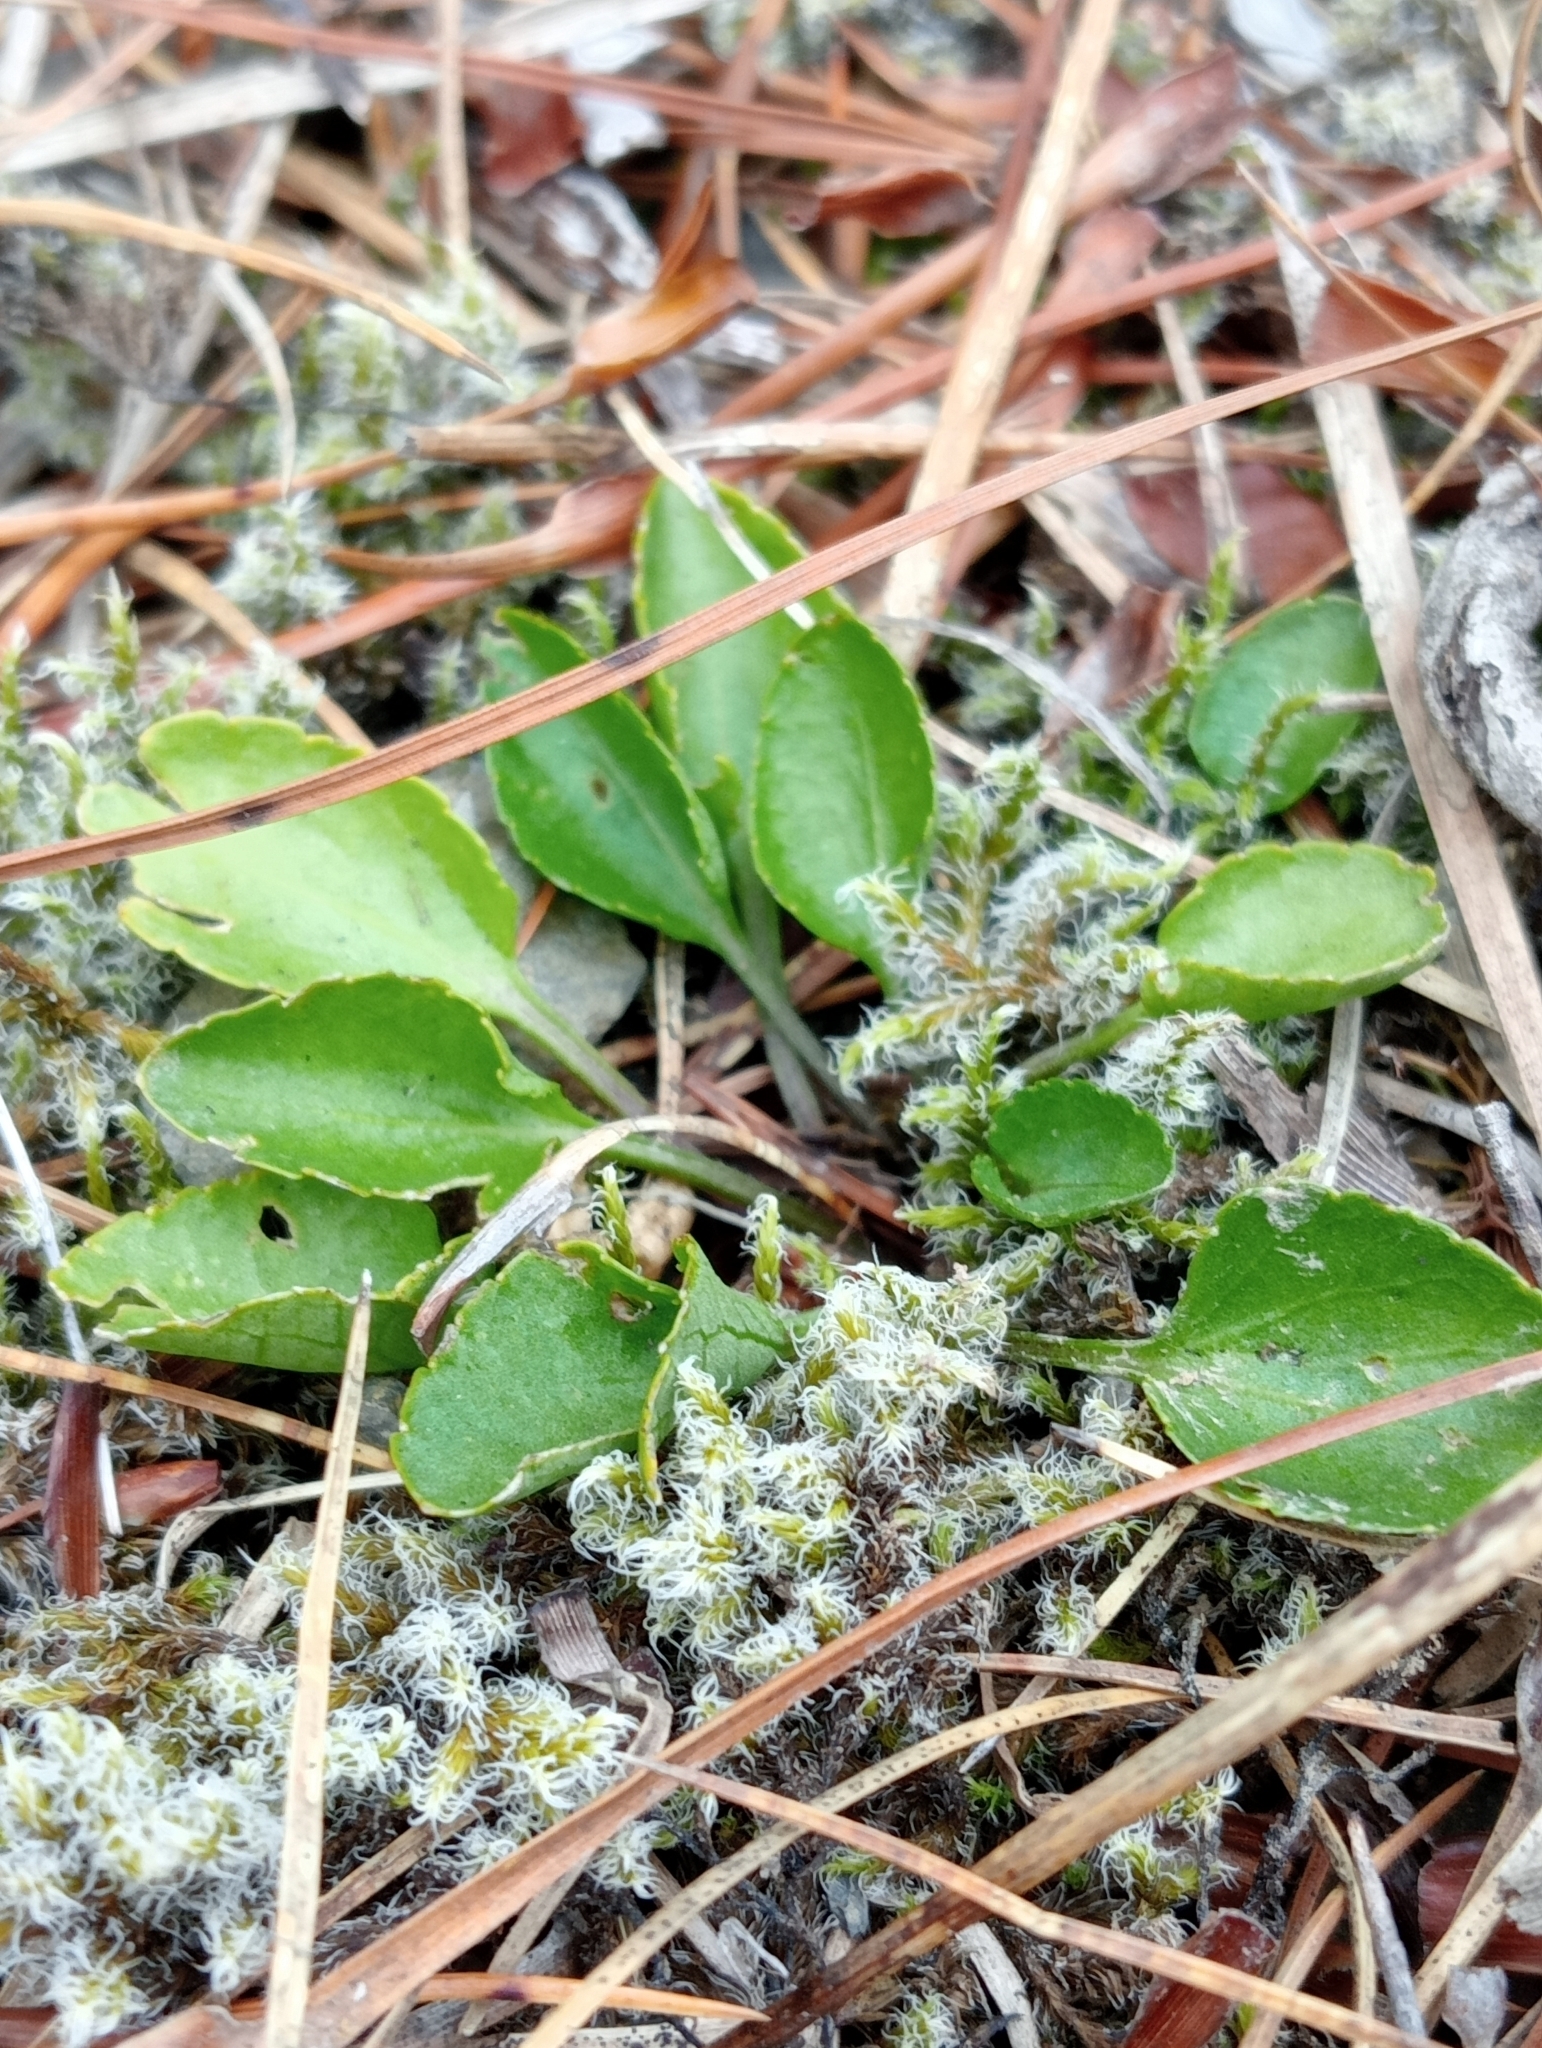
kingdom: Plantae
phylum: Tracheophyta
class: Magnoliopsida
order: Malpighiales
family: Violaceae
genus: Viola
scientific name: Viola cunninghamii
